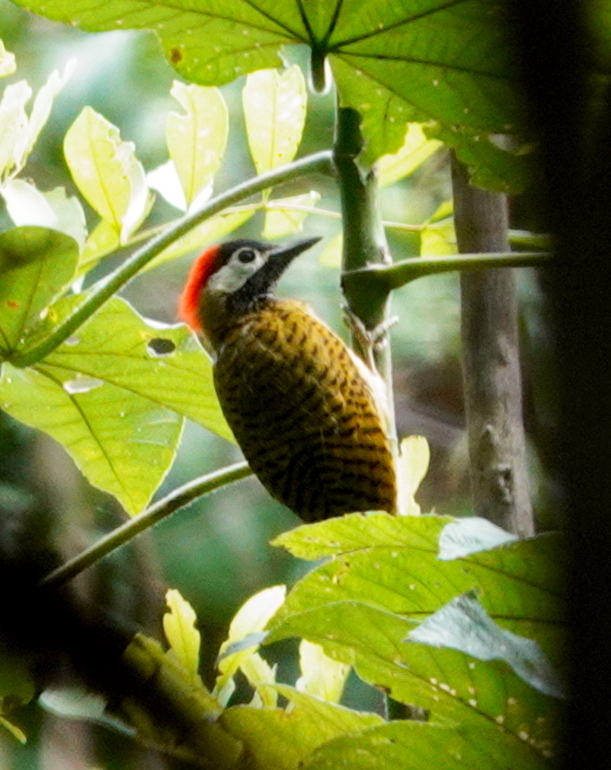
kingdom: Animalia
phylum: Chordata
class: Aves
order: Piciformes
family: Picidae
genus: Colaptes
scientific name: Colaptes punctigula
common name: Spot-breasted woodpecker
